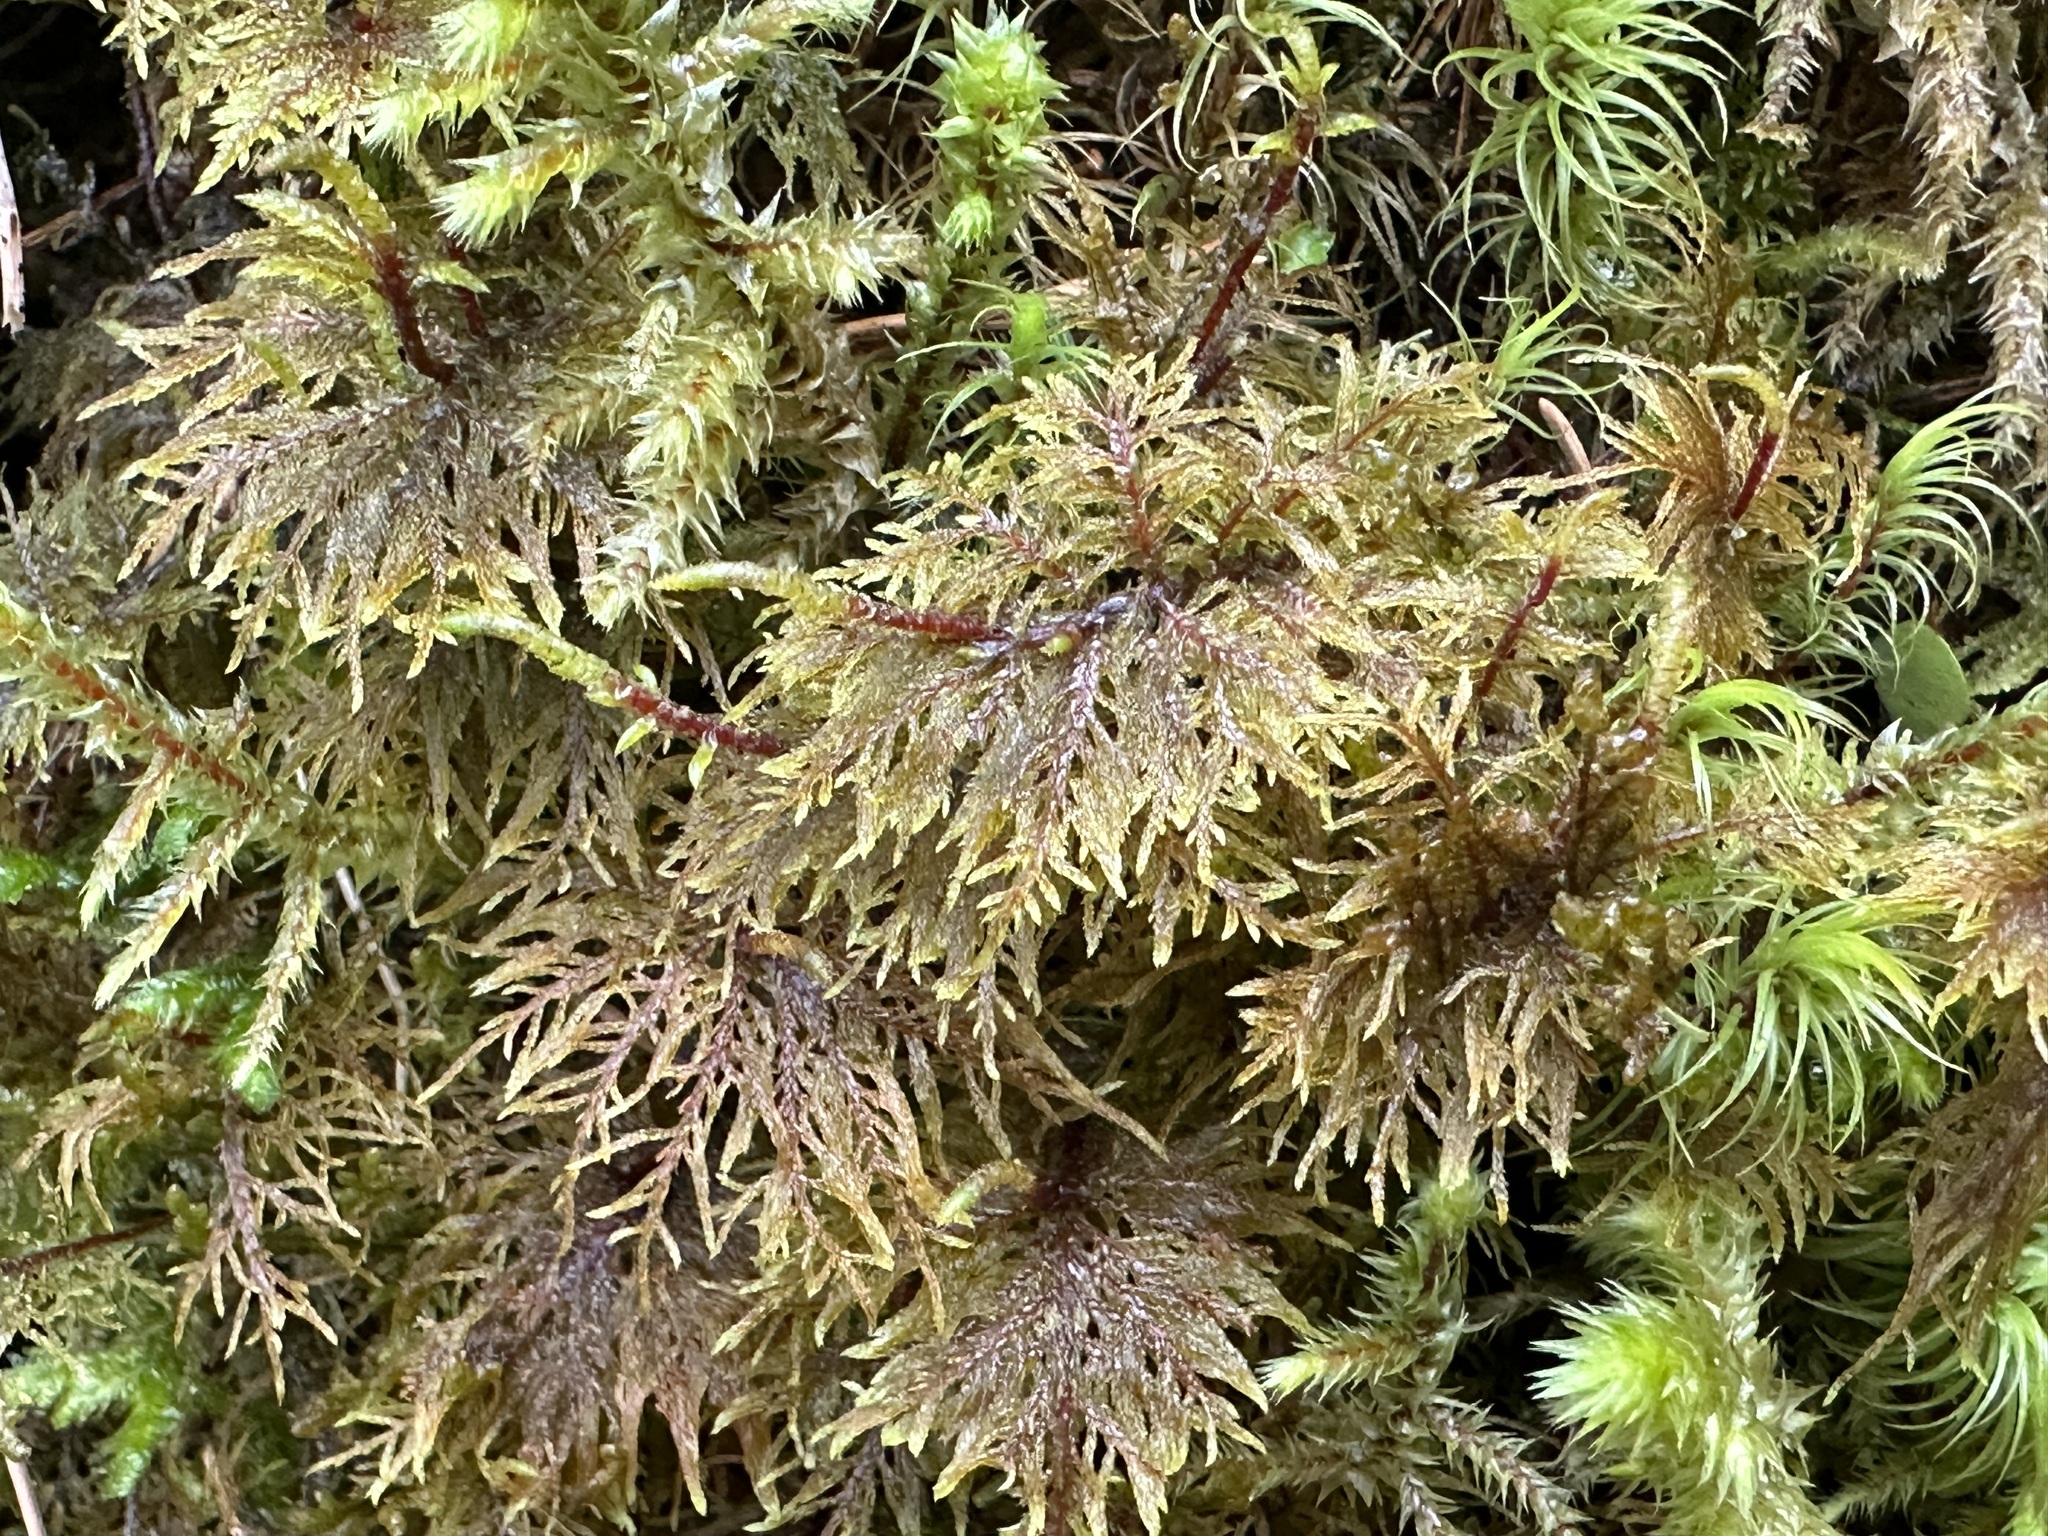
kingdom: Plantae
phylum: Bryophyta
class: Bryopsida
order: Hypnales
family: Hylocomiaceae
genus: Hylocomium
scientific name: Hylocomium splendens
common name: Stairstep moss
